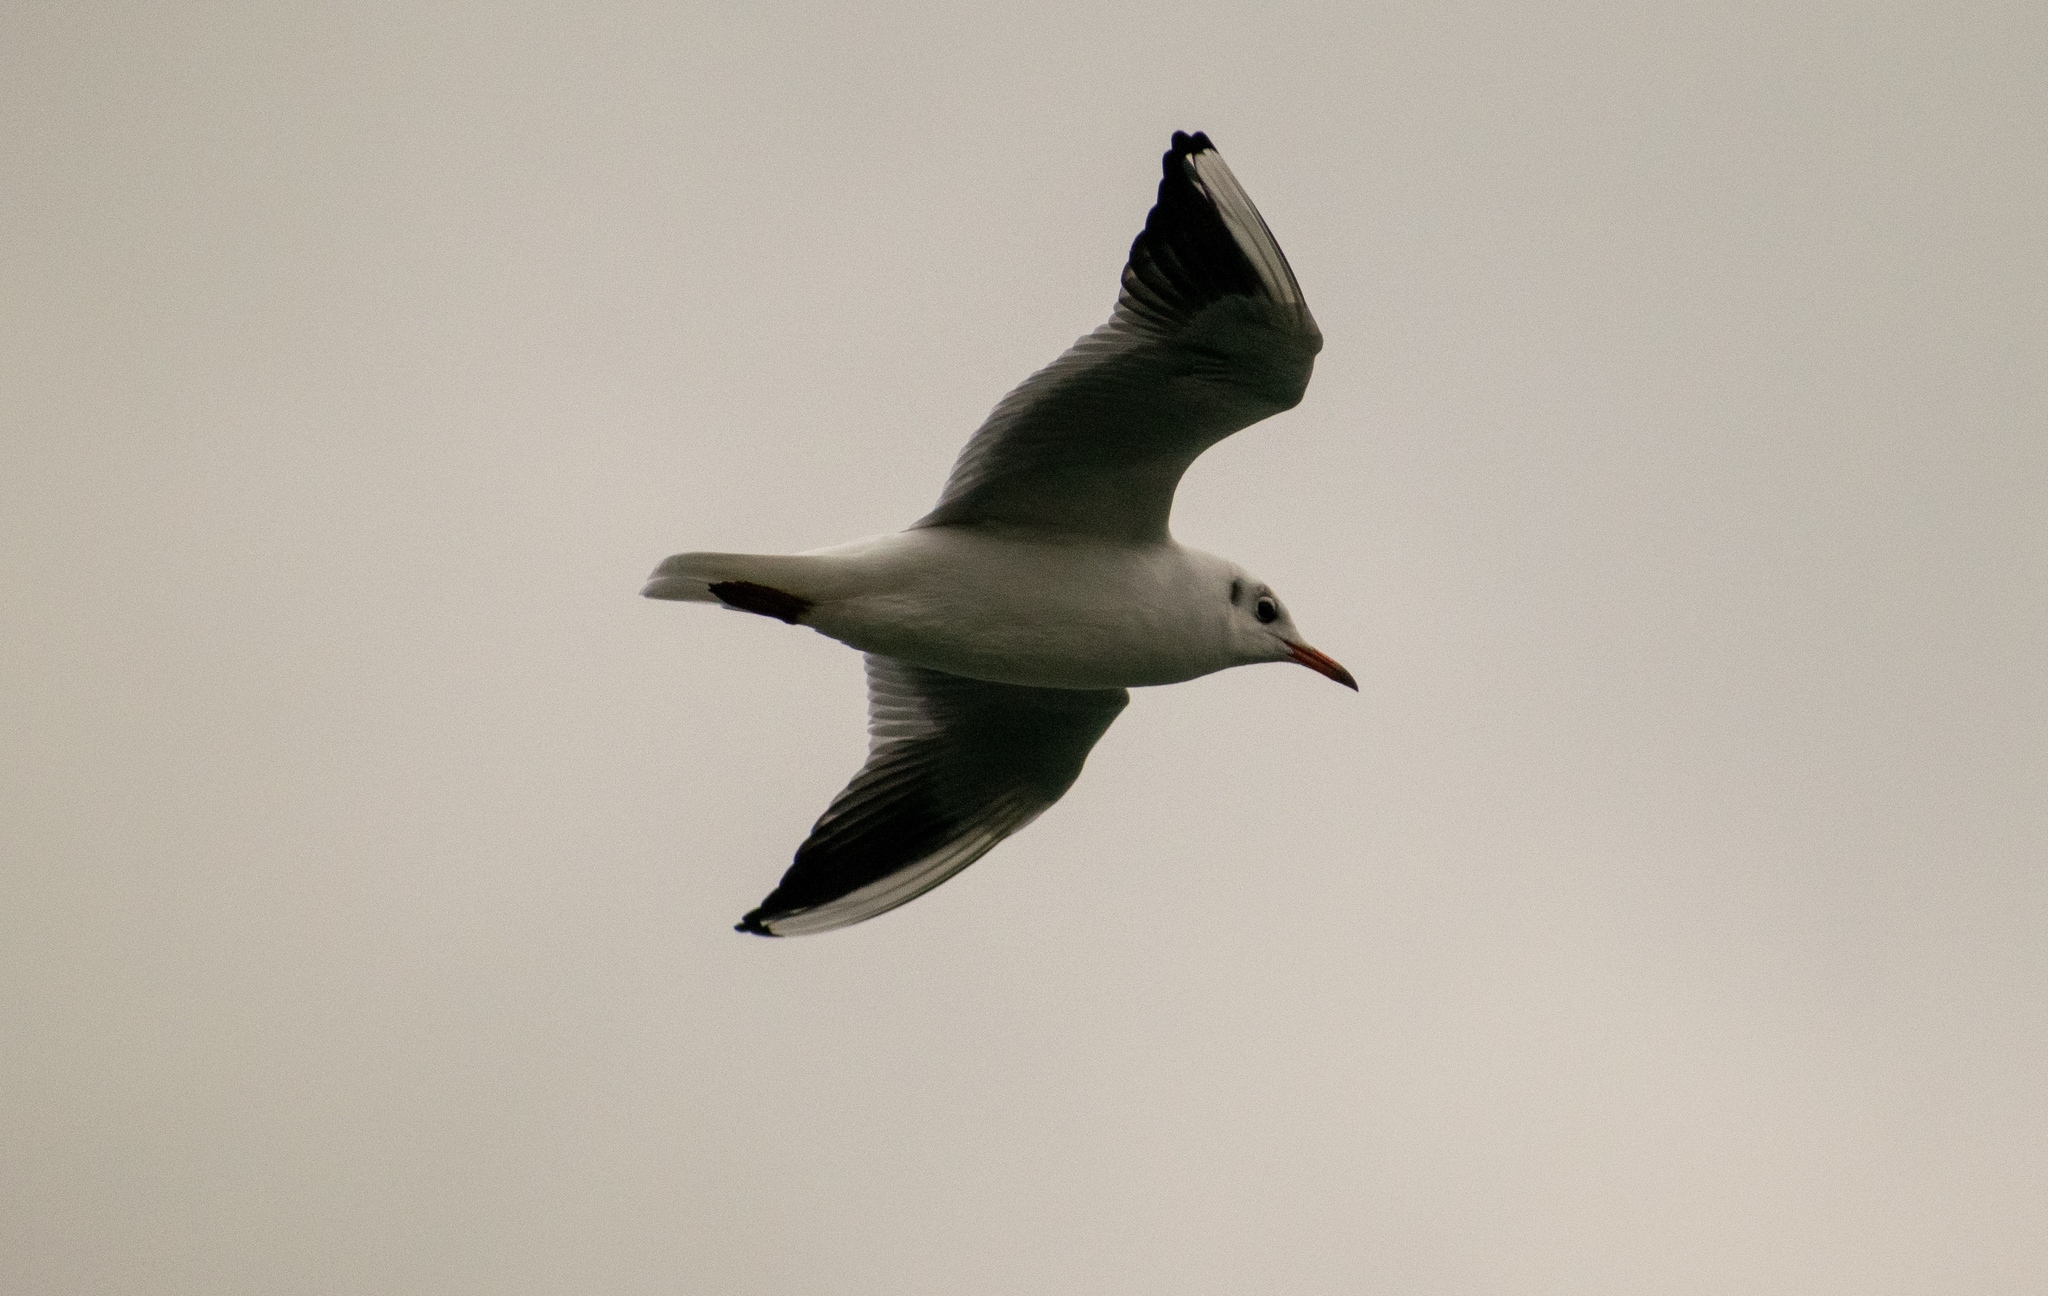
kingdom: Animalia
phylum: Chordata
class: Aves
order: Charadriiformes
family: Laridae
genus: Chroicocephalus
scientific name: Chroicocephalus ridibundus
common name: Black-headed gull
